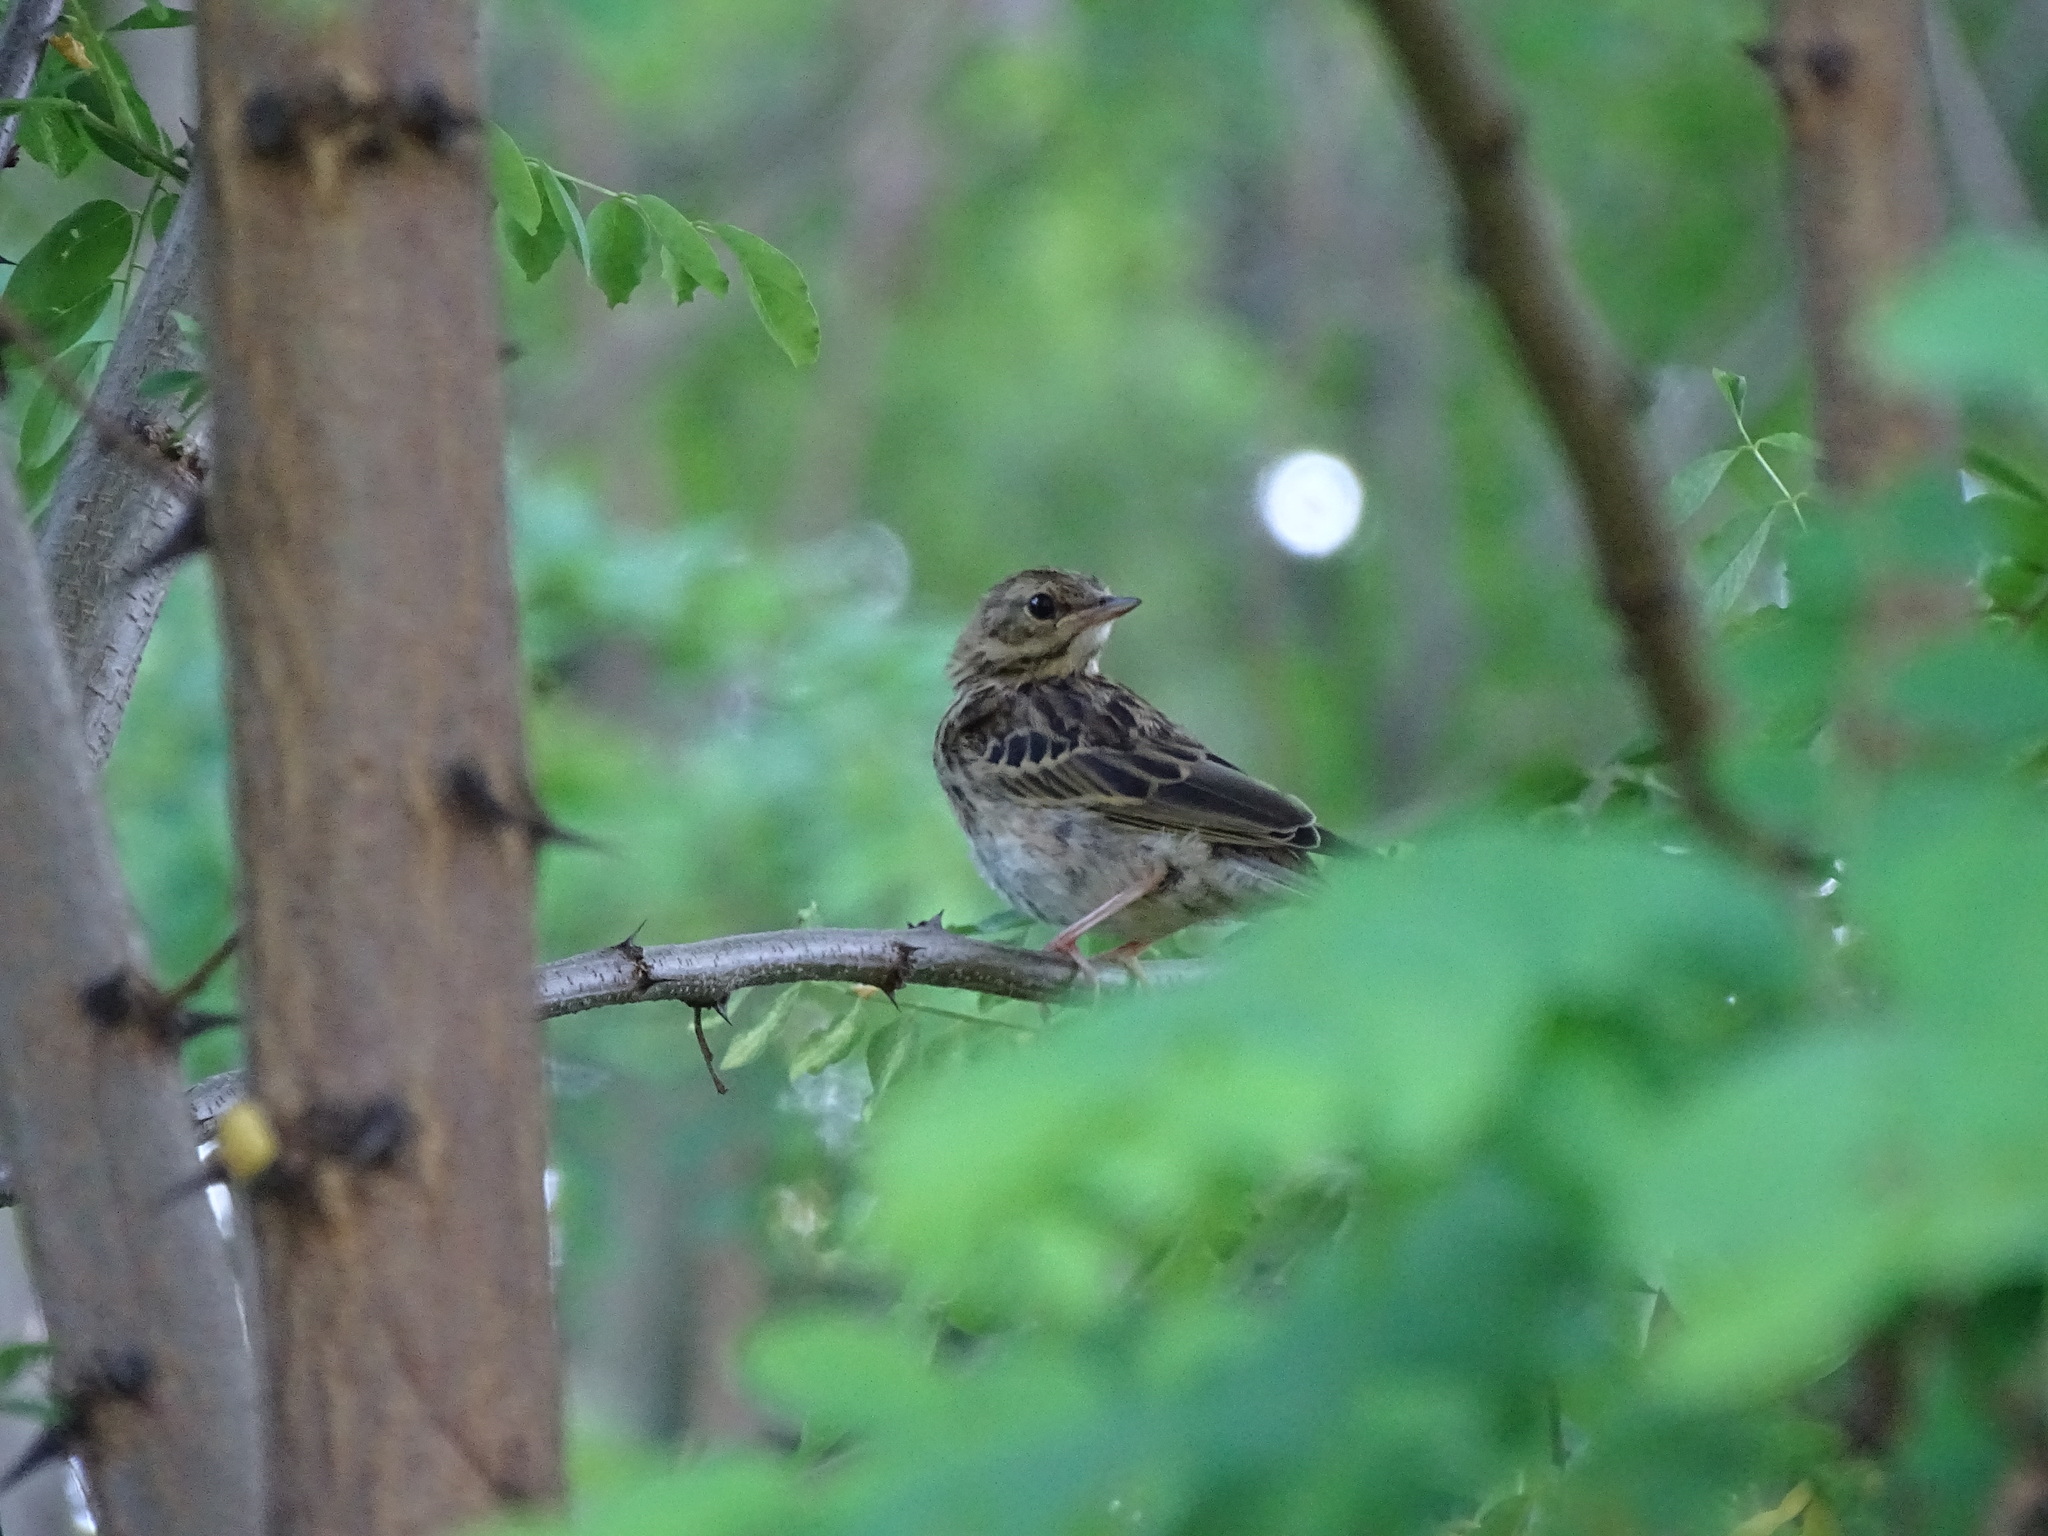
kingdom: Animalia
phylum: Chordata
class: Aves
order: Passeriformes
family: Motacillidae
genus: Anthus
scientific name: Anthus trivialis
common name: Tree pipit
